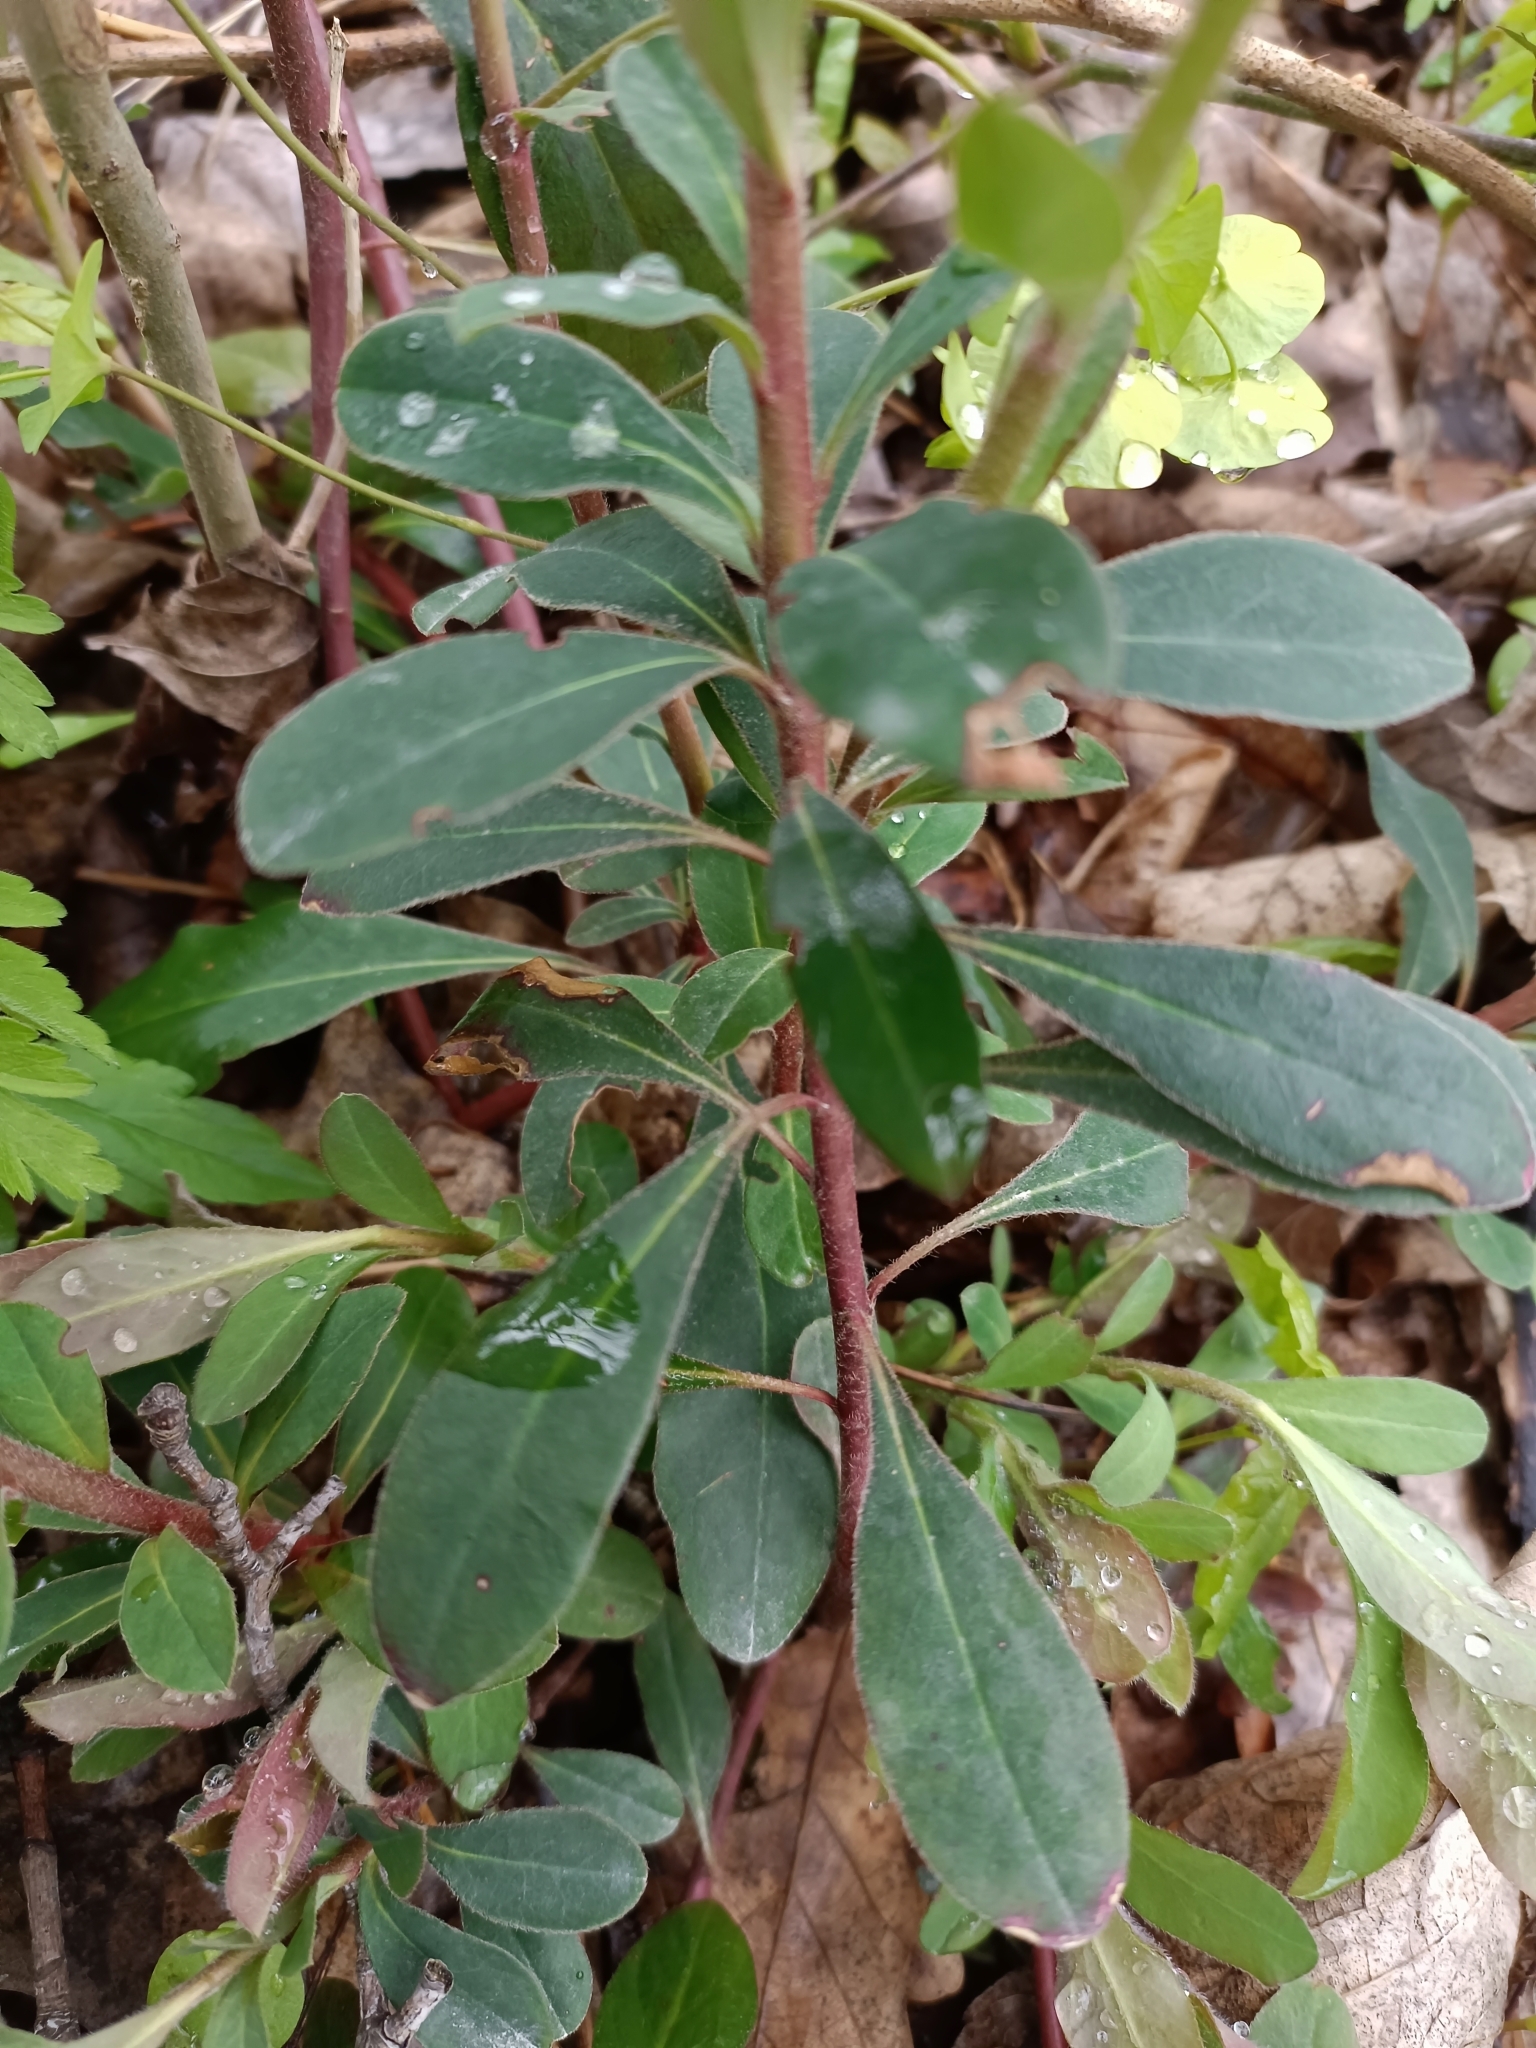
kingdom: Plantae
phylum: Tracheophyta
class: Magnoliopsida
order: Malpighiales
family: Euphorbiaceae
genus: Euphorbia
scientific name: Euphorbia amygdaloides
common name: Wood spurge
